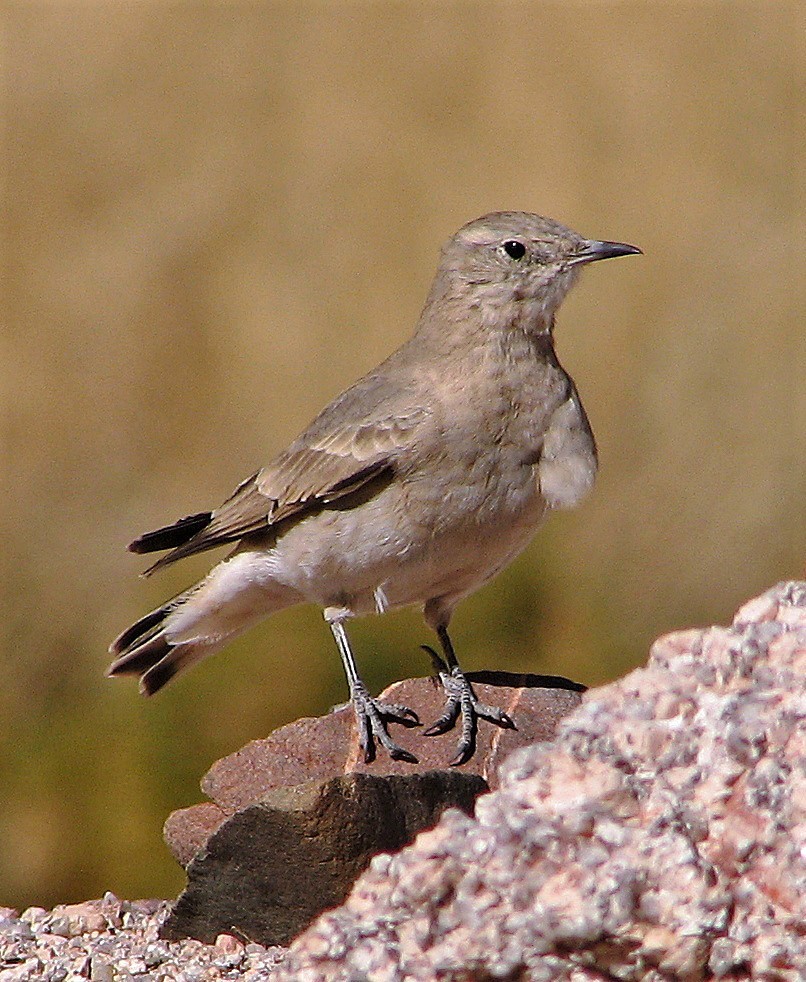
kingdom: Animalia
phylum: Chordata
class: Aves
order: Passeriformes
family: Furnariidae
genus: Geositta
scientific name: Geositta isabellina
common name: Creamy-rumped miner
